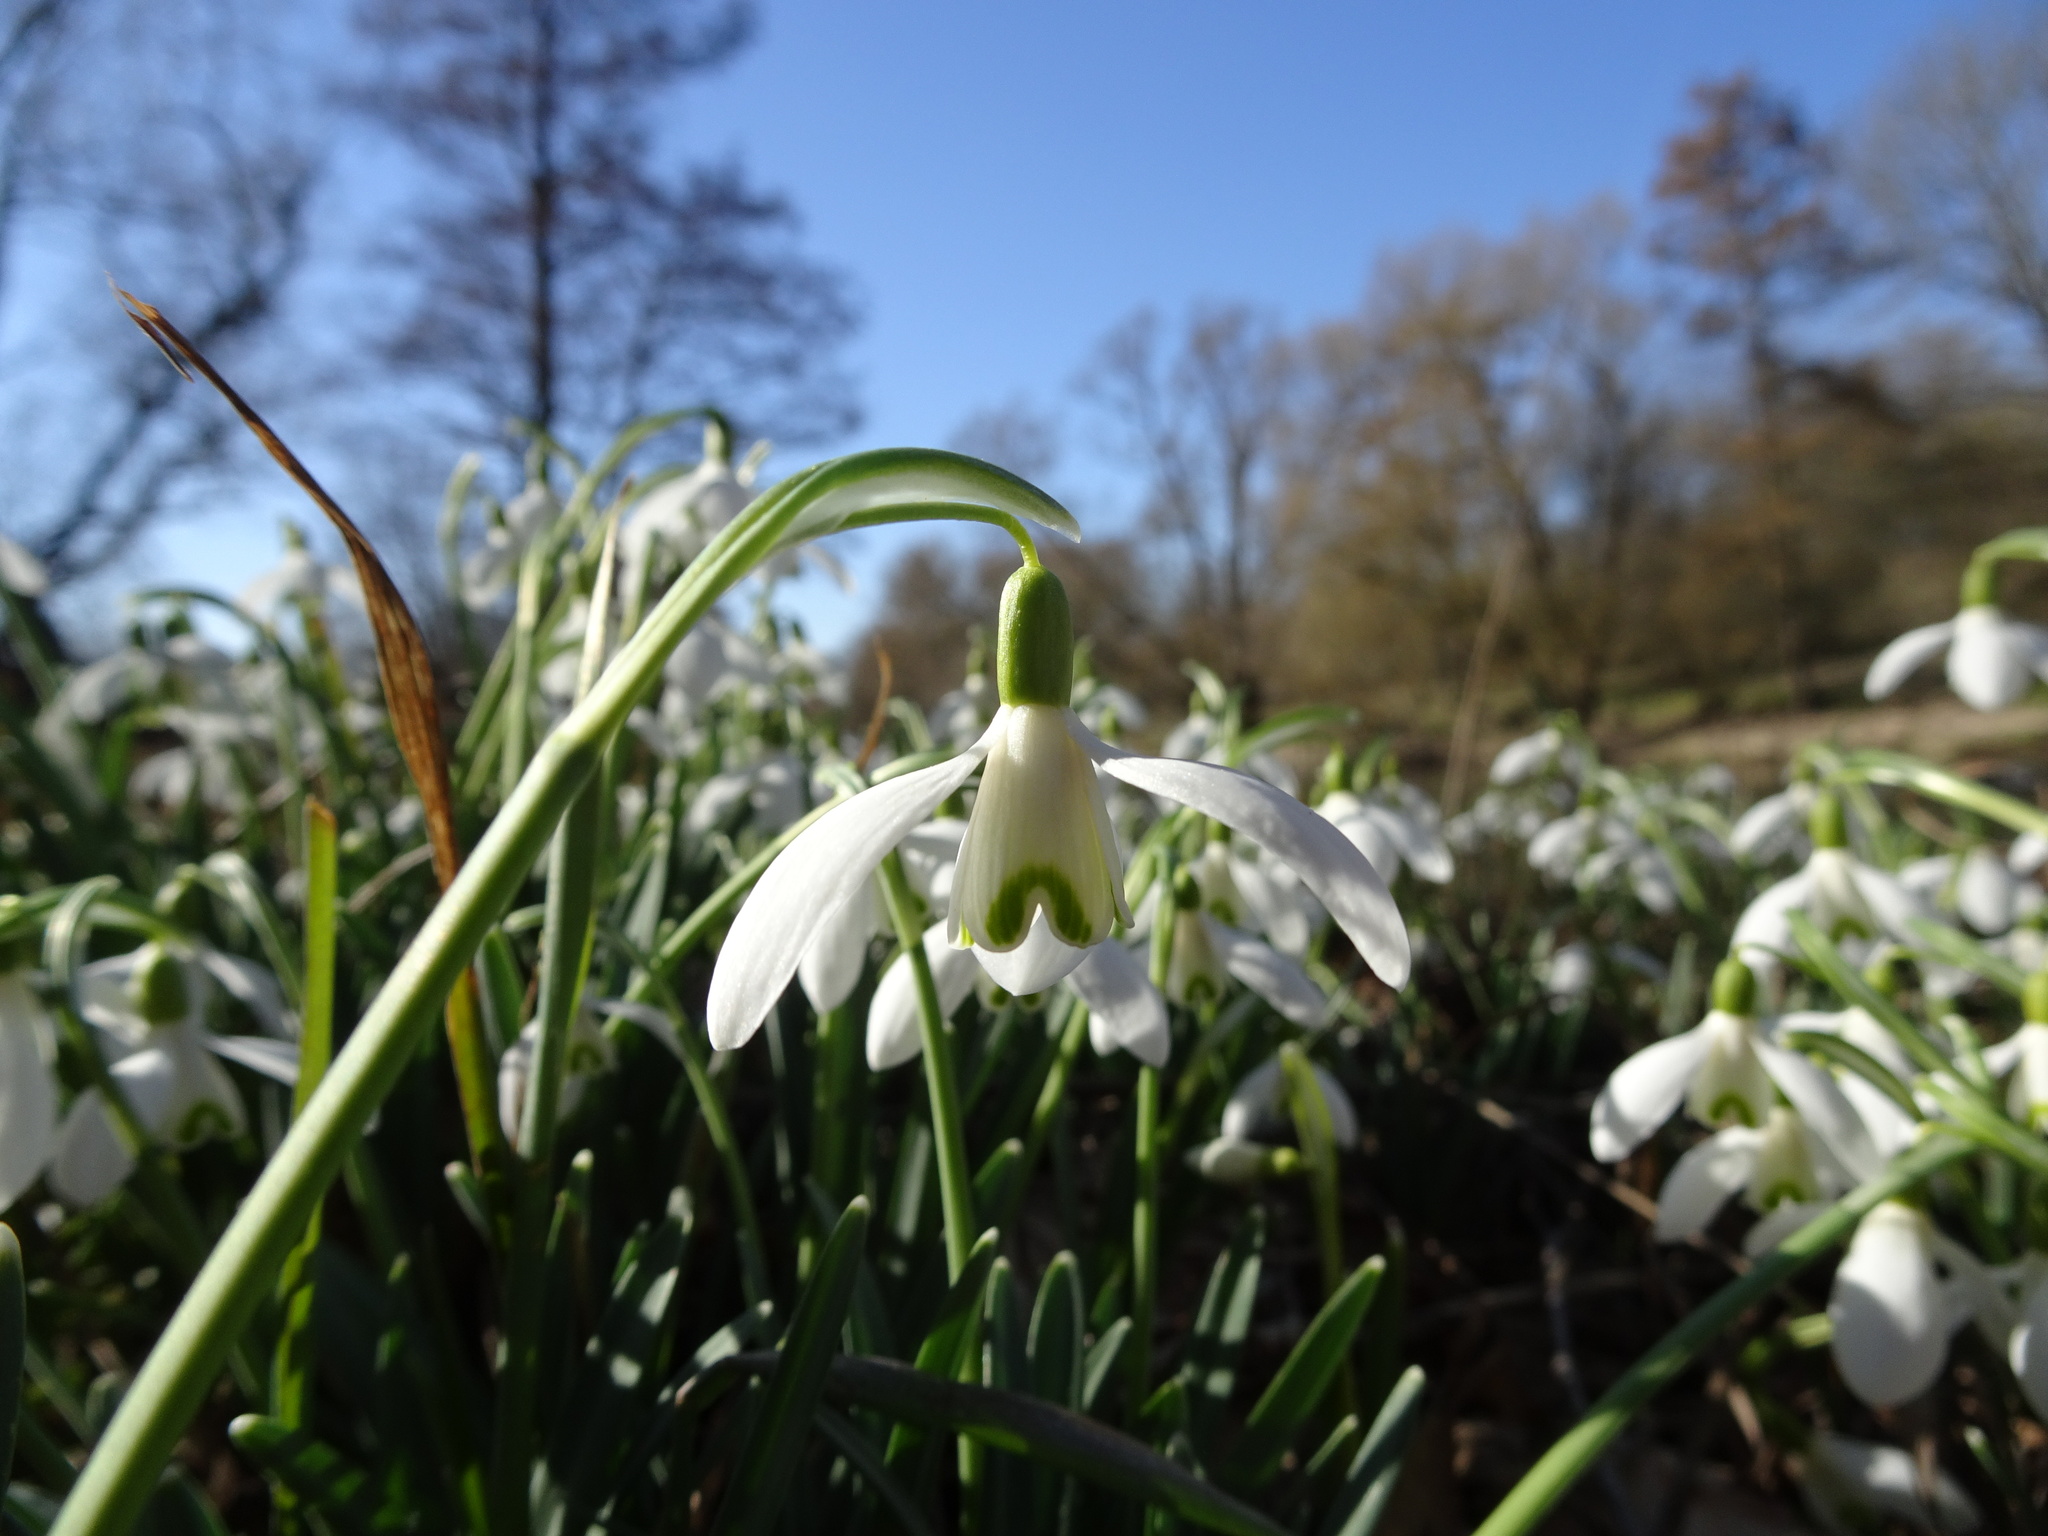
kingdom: Plantae
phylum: Tracheophyta
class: Liliopsida
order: Asparagales
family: Amaryllidaceae
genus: Galanthus
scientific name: Galanthus nivalis
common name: Snowdrop
